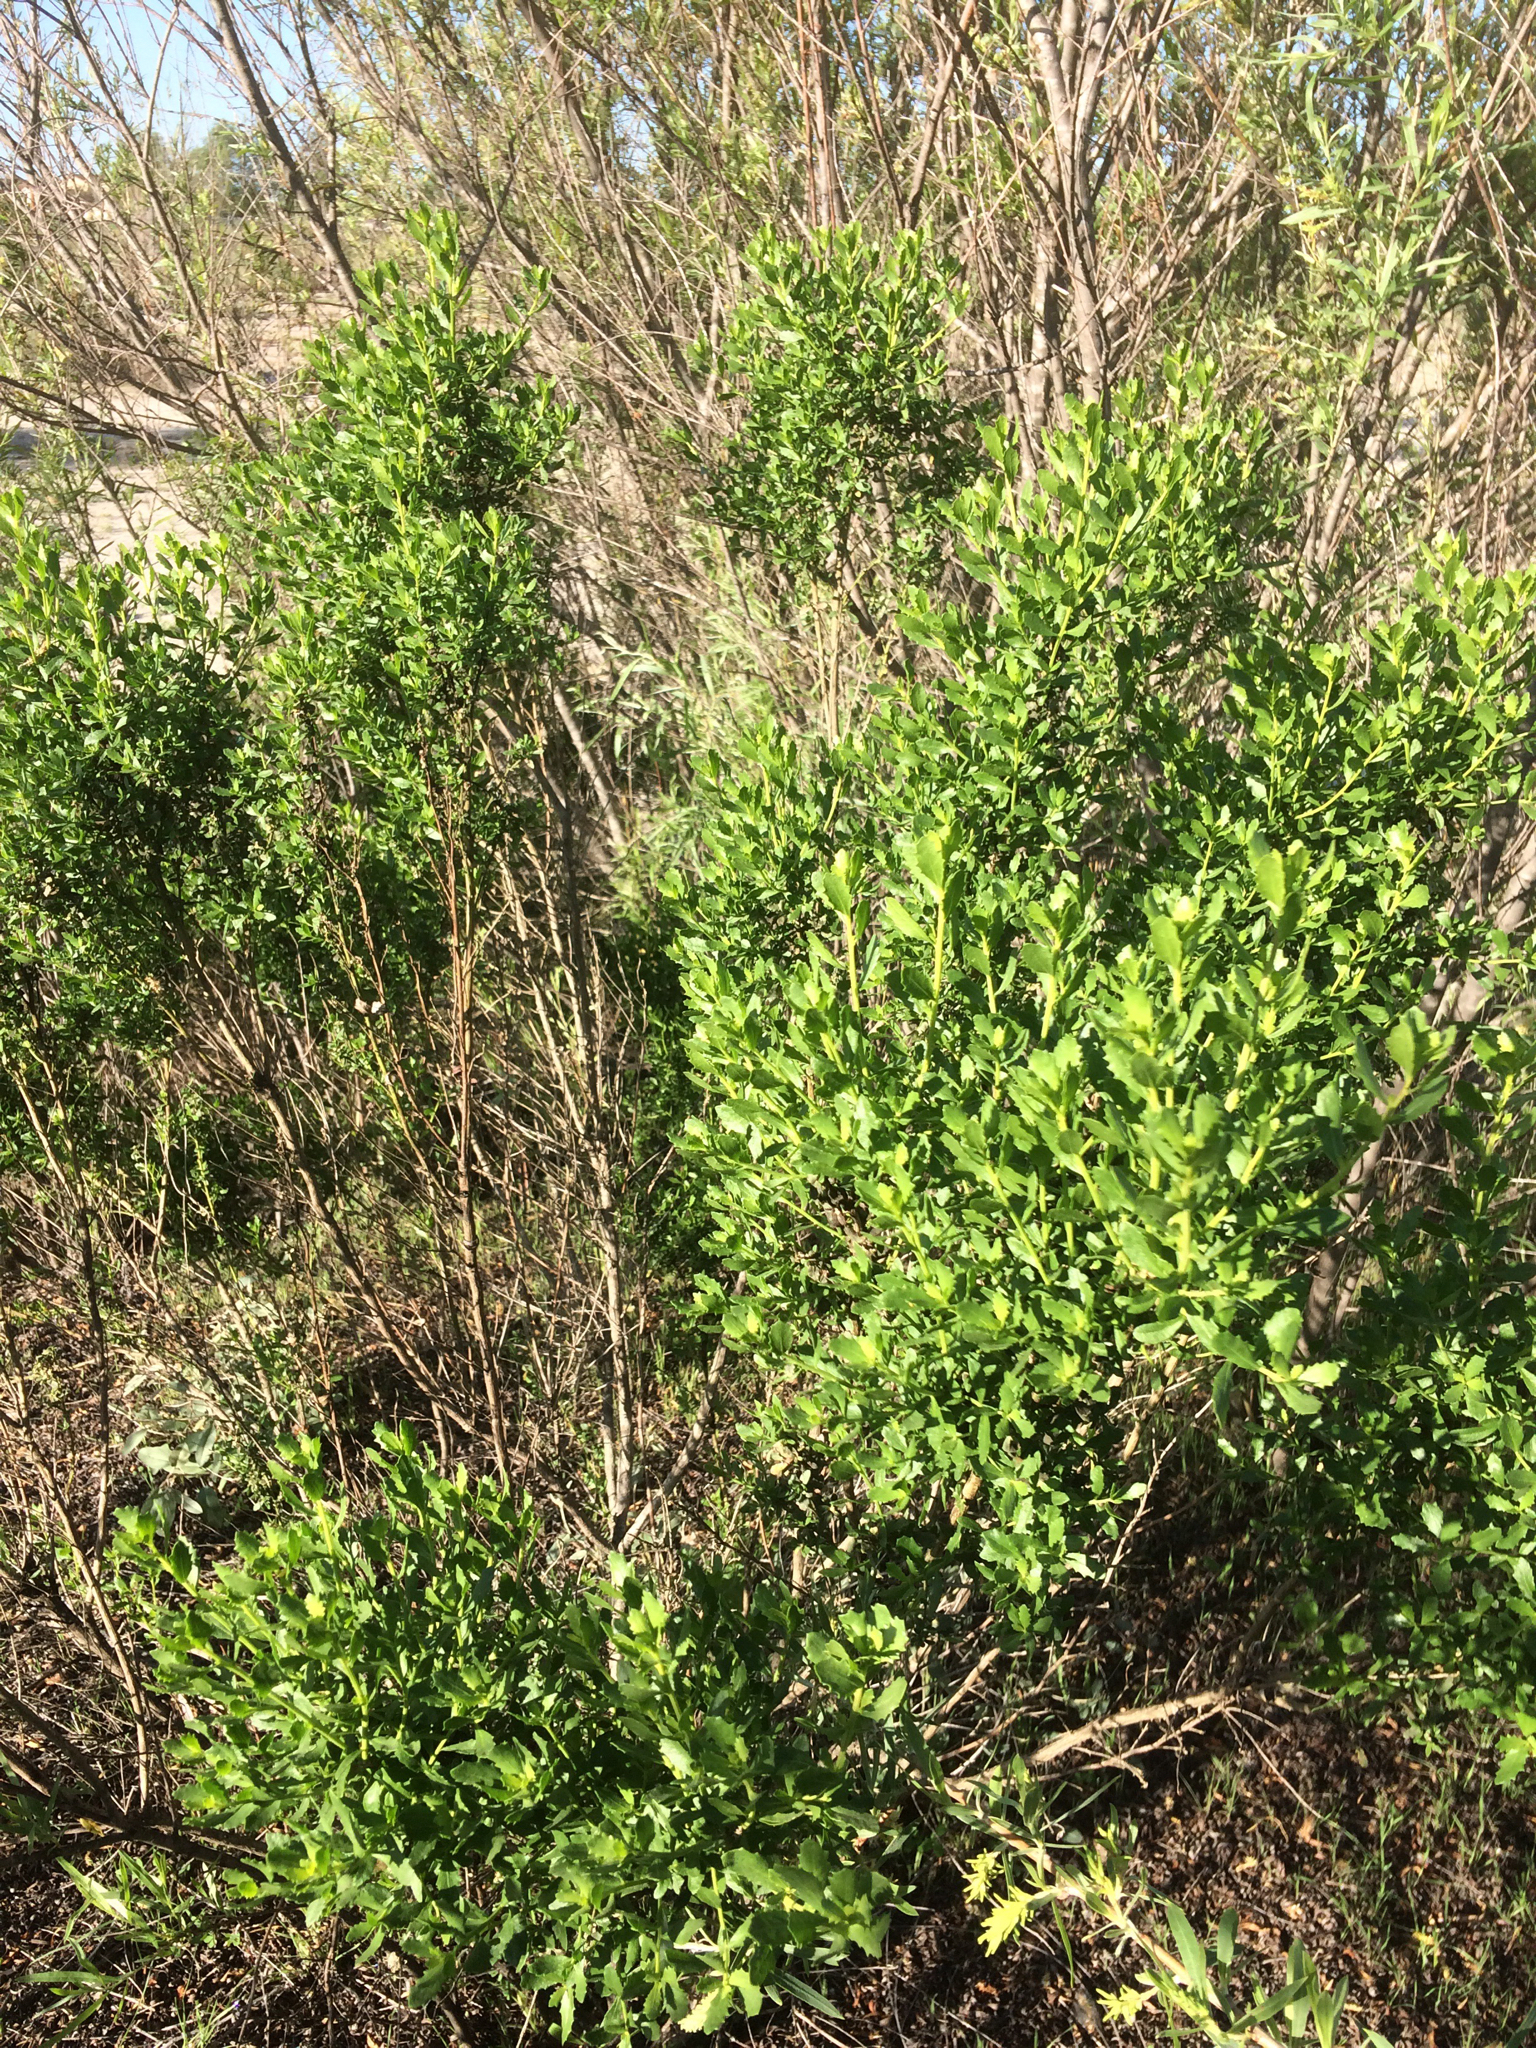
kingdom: Plantae
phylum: Tracheophyta
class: Magnoliopsida
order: Asterales
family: Asteraceae
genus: Baccharis
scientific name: Baccharis pilularis
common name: Coyotebrush
